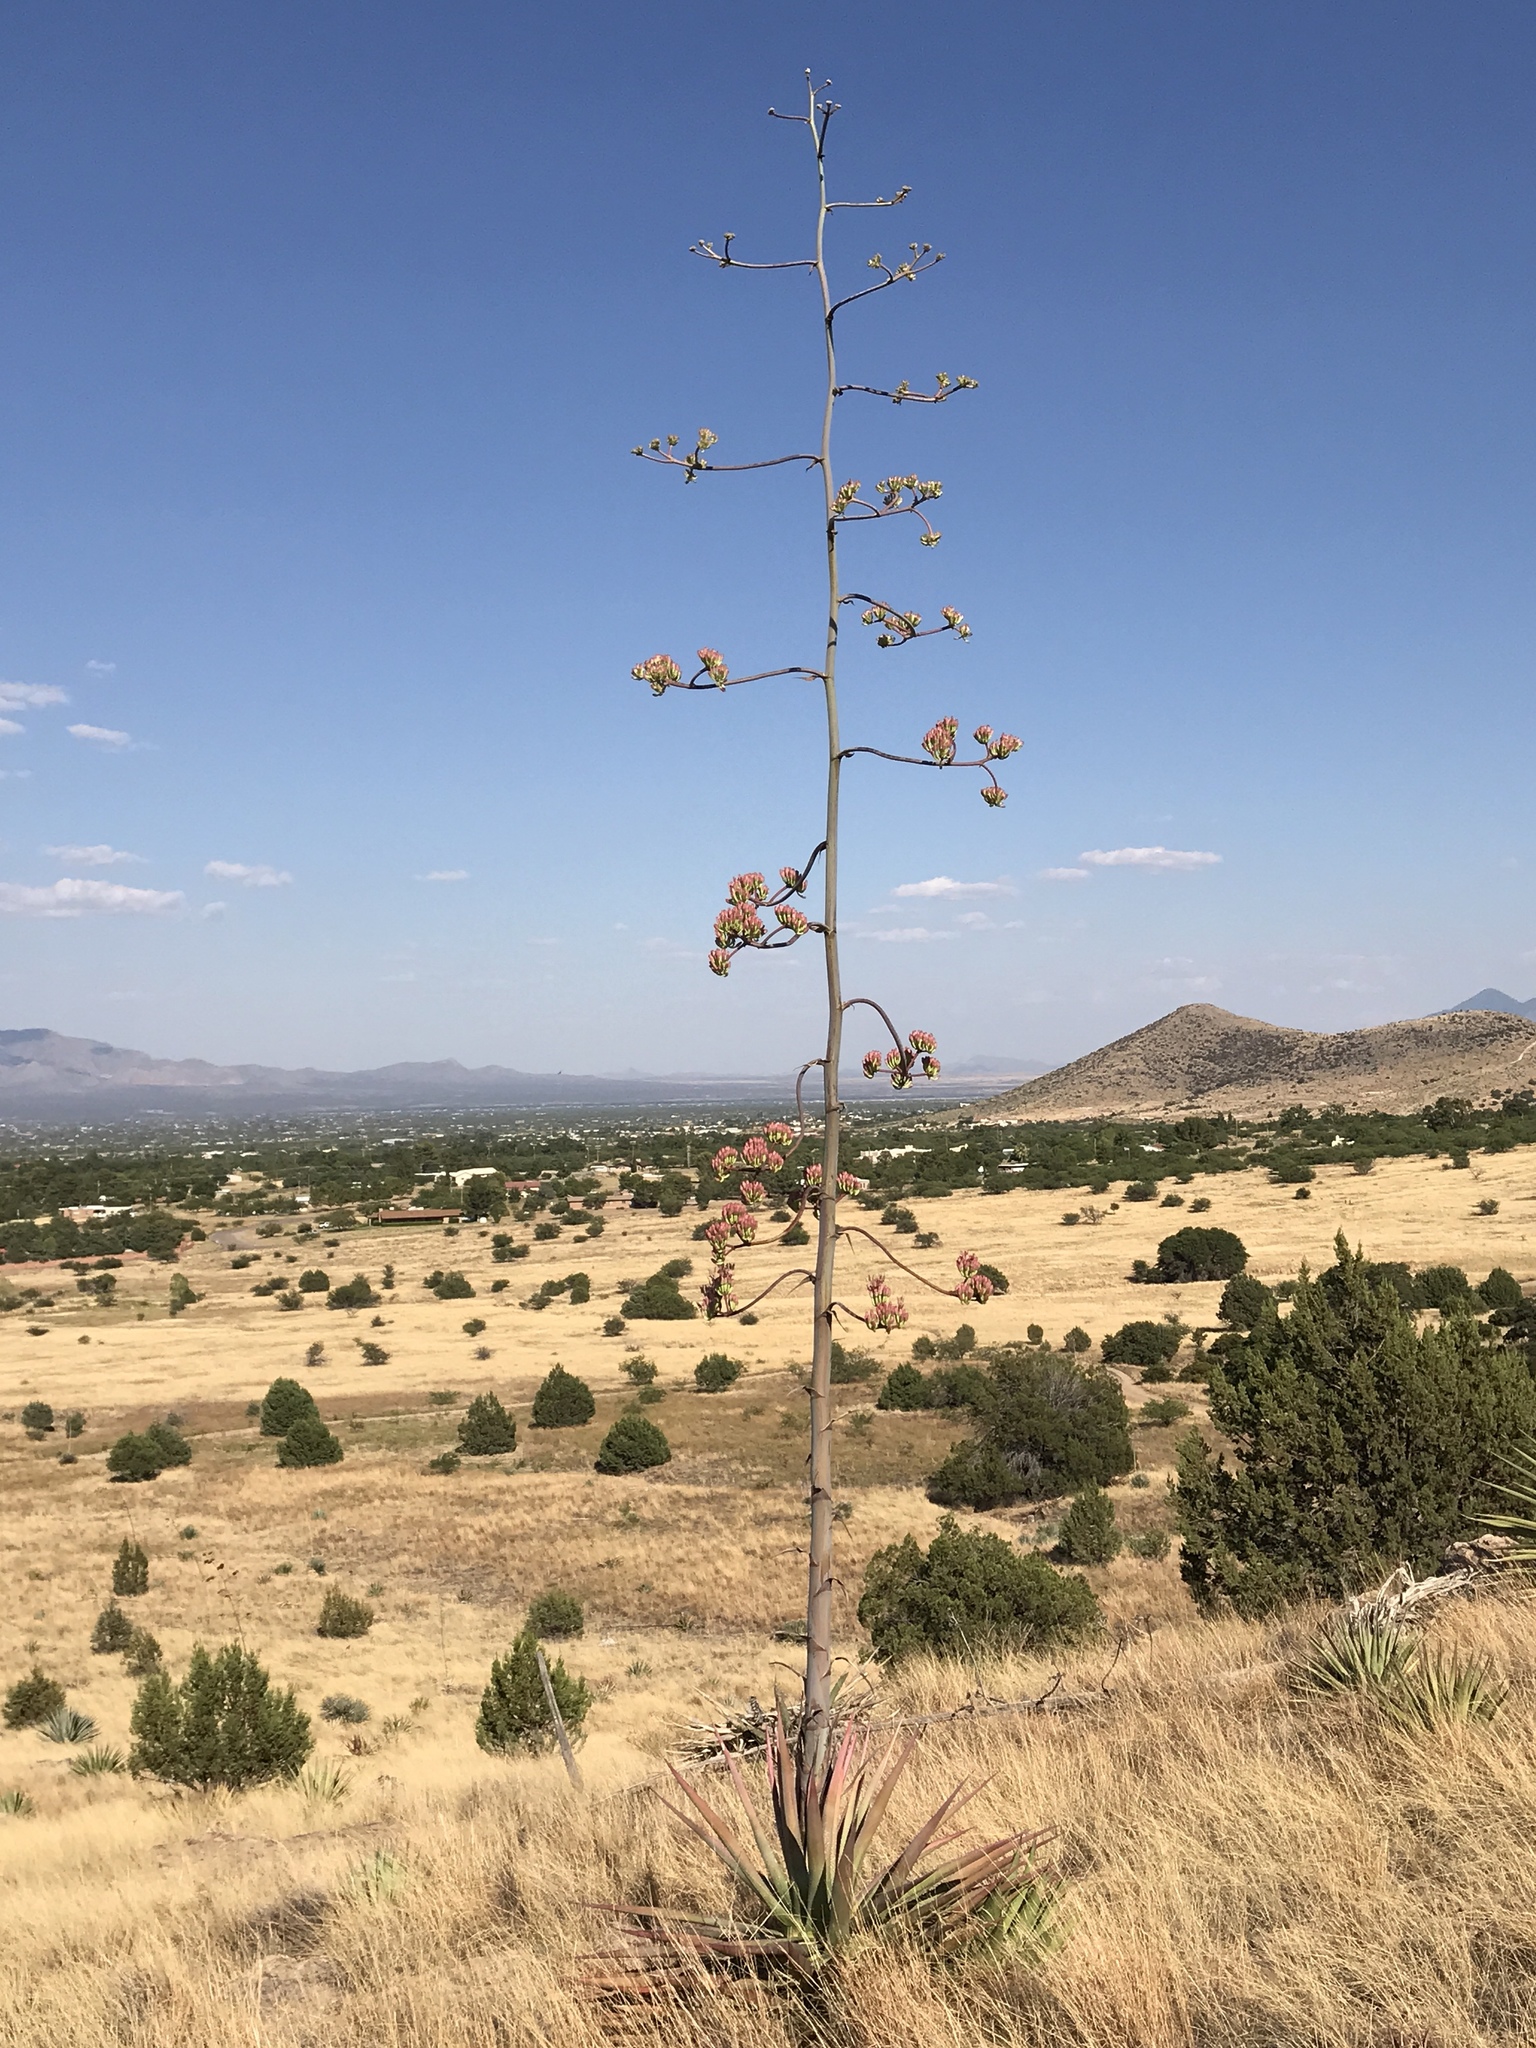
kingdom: Plantae
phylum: Tracheophyta
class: Liliopsida
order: Asparagales
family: Asparagaceae
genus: Agave
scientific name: Agave palmeri
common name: Palmer agave
